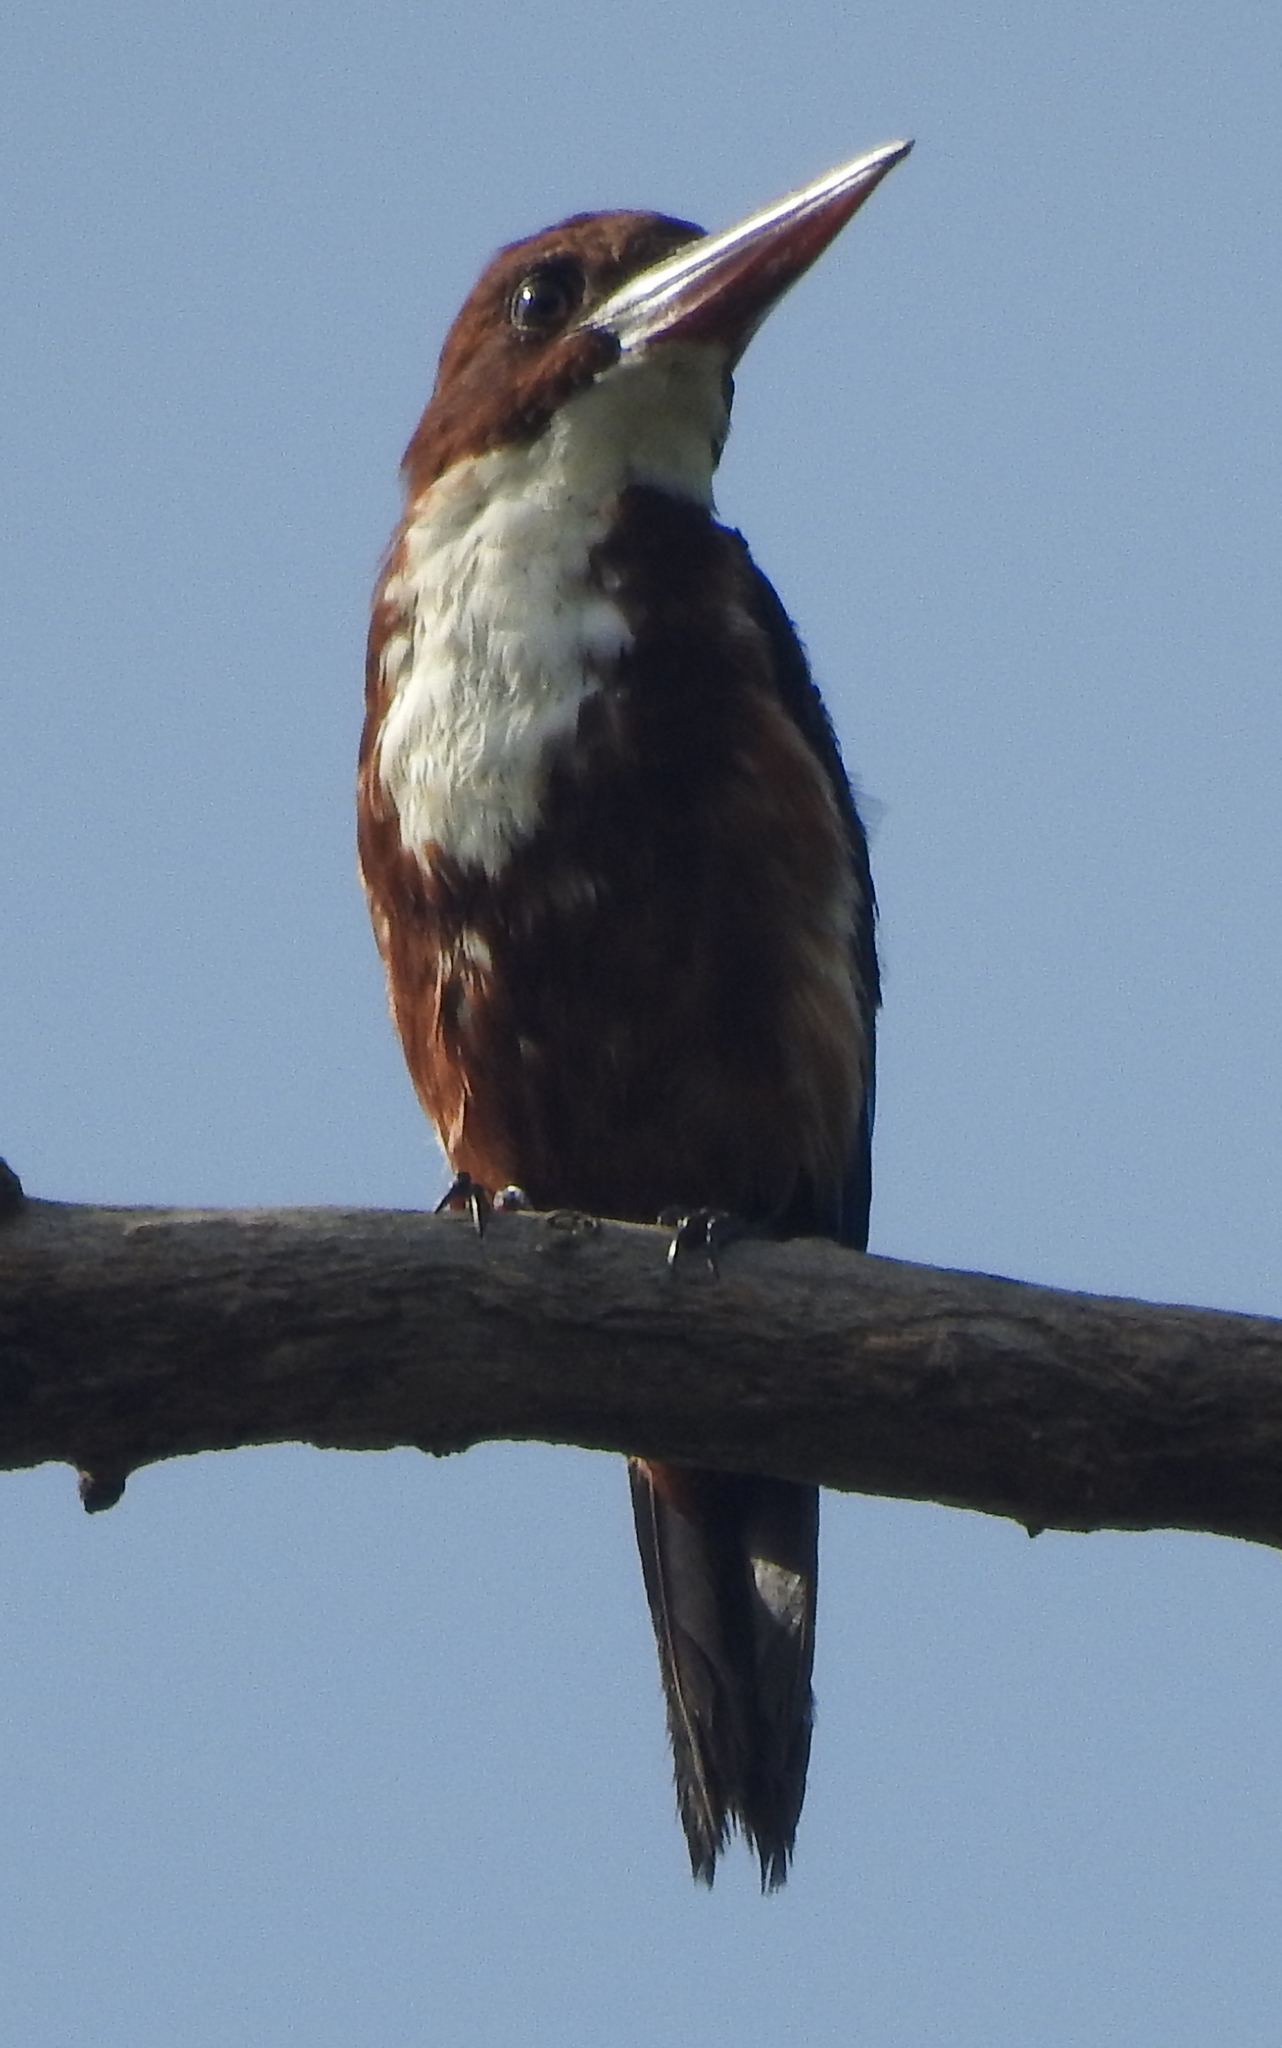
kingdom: Animalia
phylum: Chordata
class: Aves
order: Coraciiformes
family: Alcedinidae
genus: Halcyon
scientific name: Halcyon smyrnensis
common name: White-throated kingfisher
